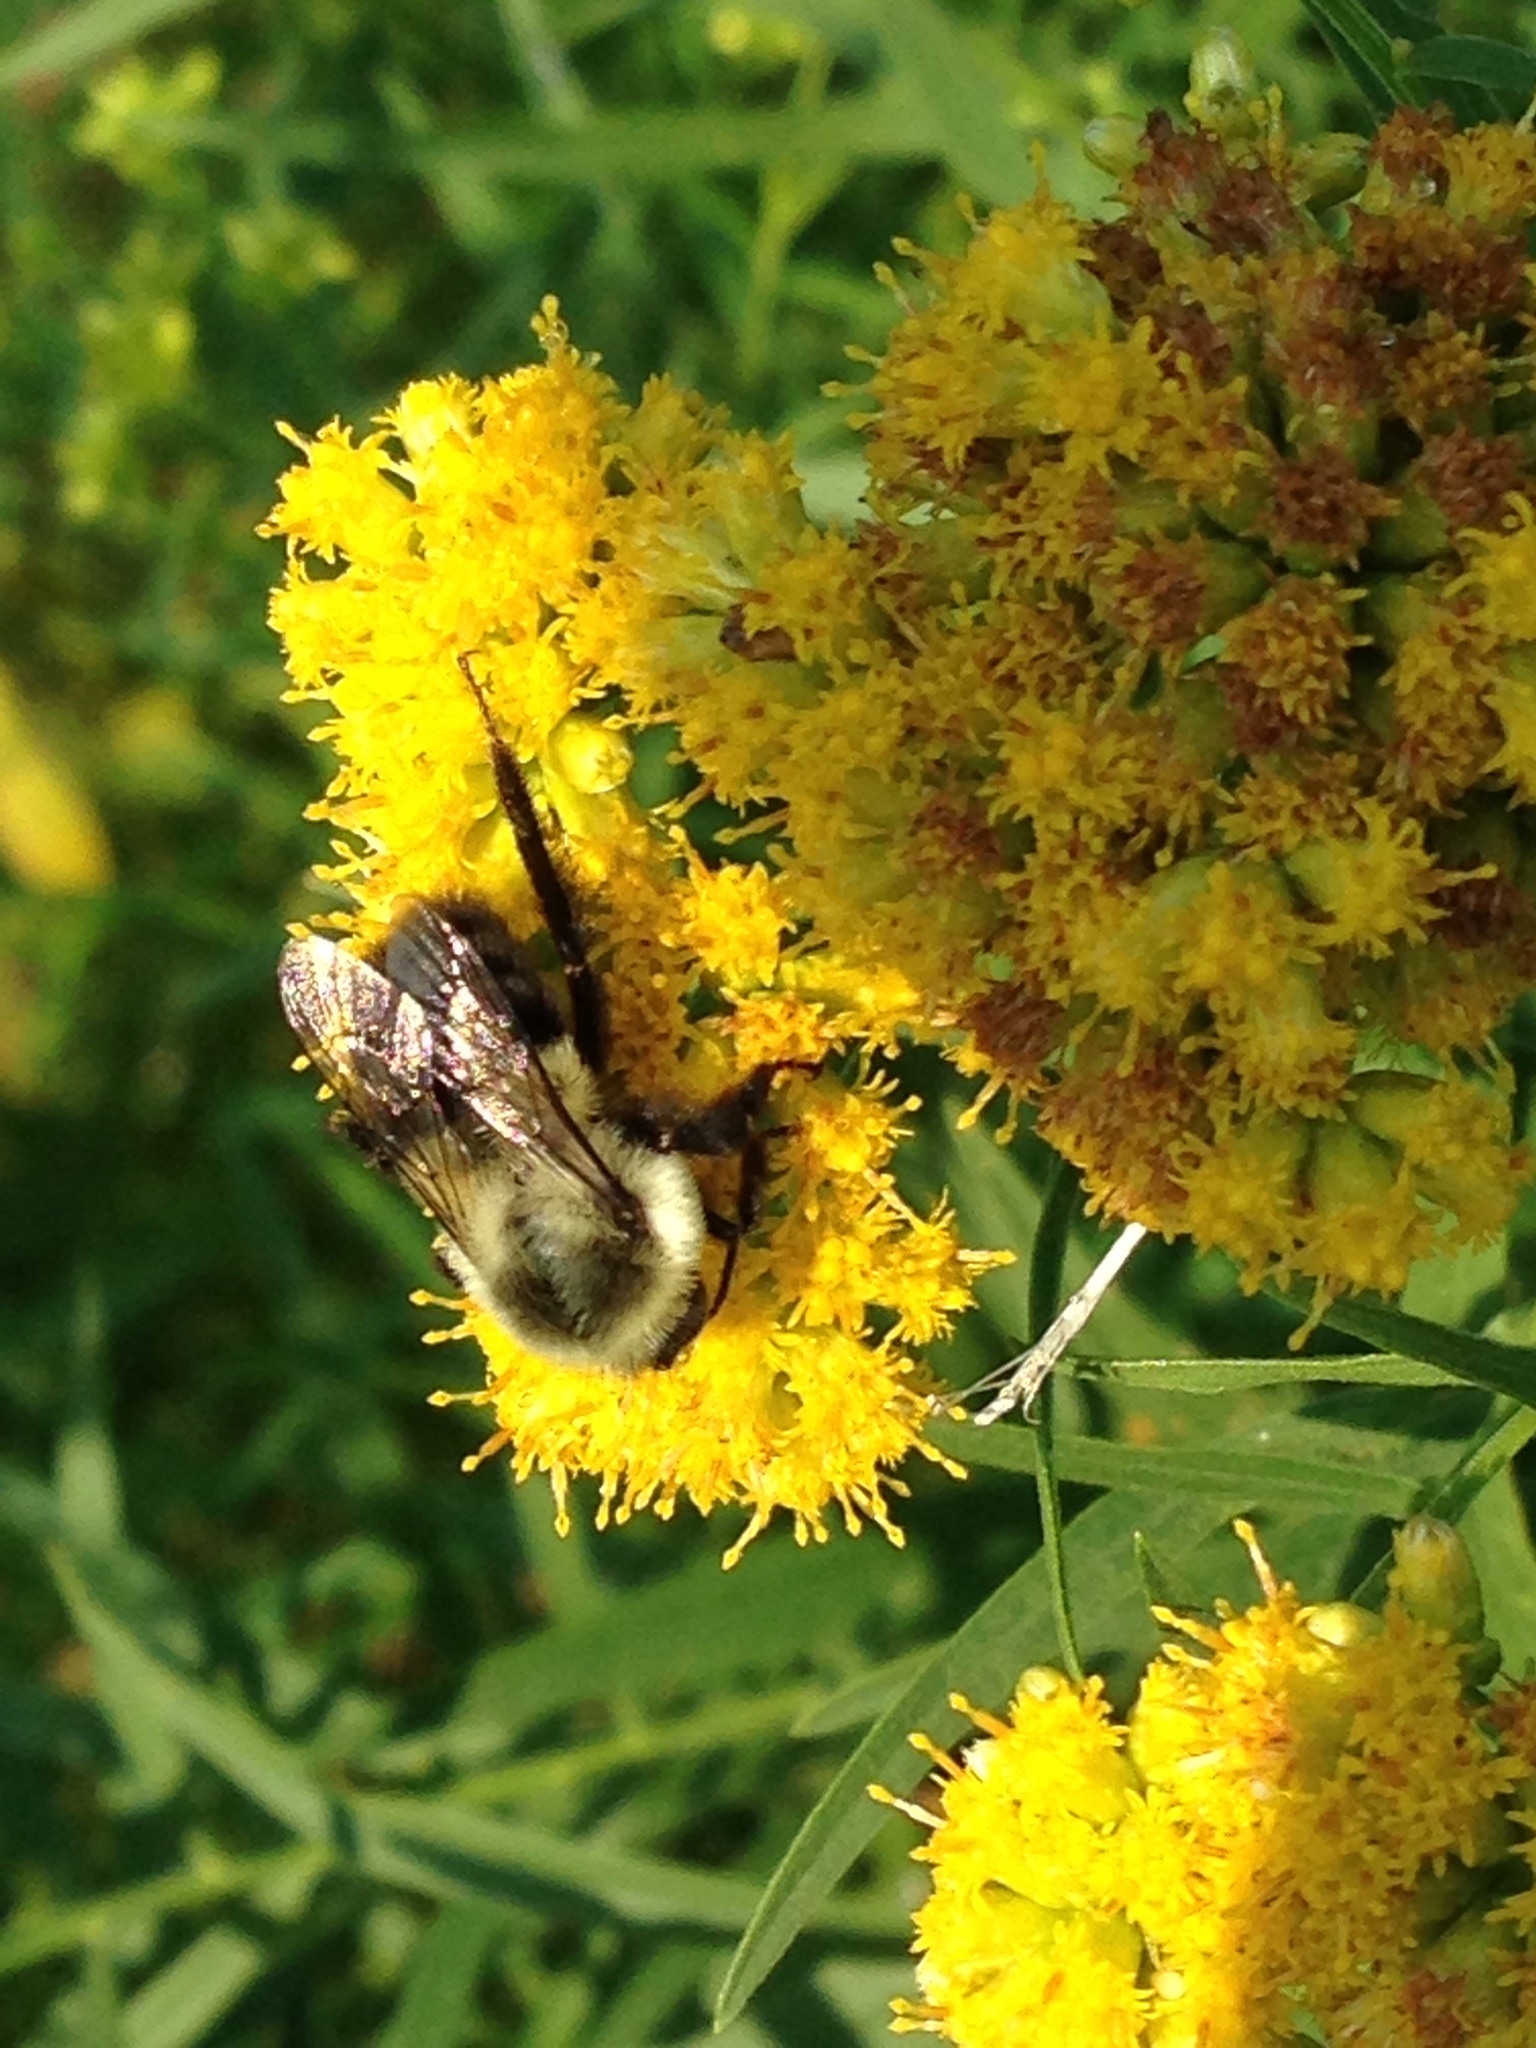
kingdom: Animalia
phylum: Arthropoda
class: Insecta
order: Hymenoptera
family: Apidae
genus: Bombus
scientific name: Bombus impatiens
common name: Common eastern bumble bee
